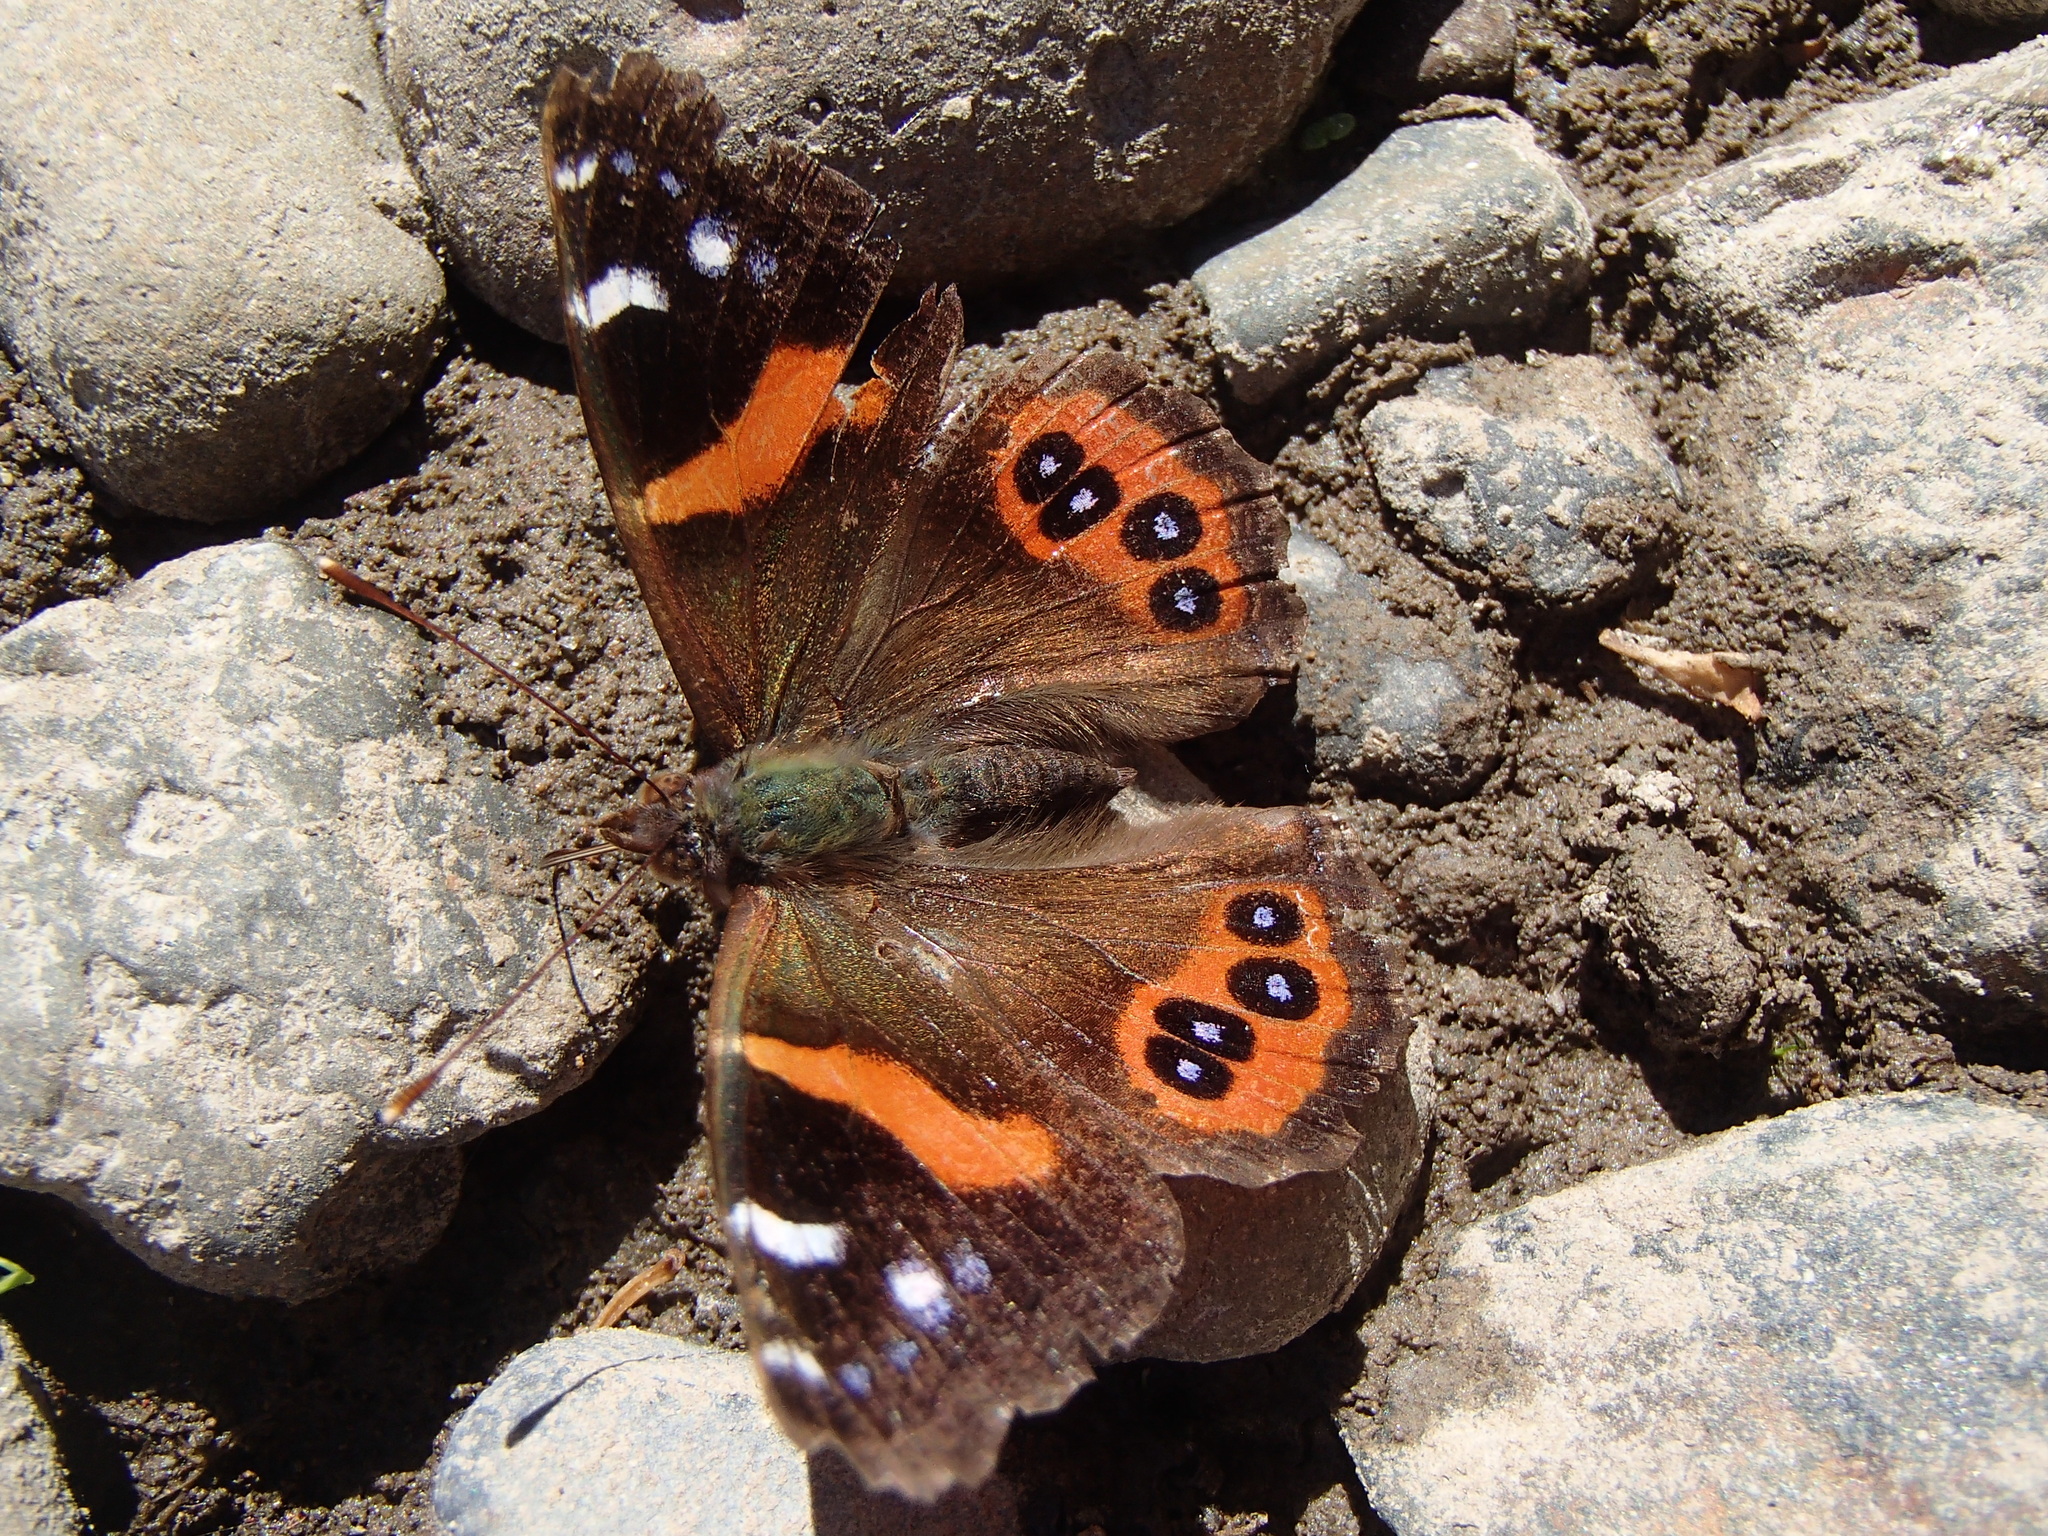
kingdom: Animalia
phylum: Arthropoda
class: Insecta
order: Lepidoptera
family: Nymphalidae
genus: Vanessa
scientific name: Vanessa gonerilla
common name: New zealand red admiral
